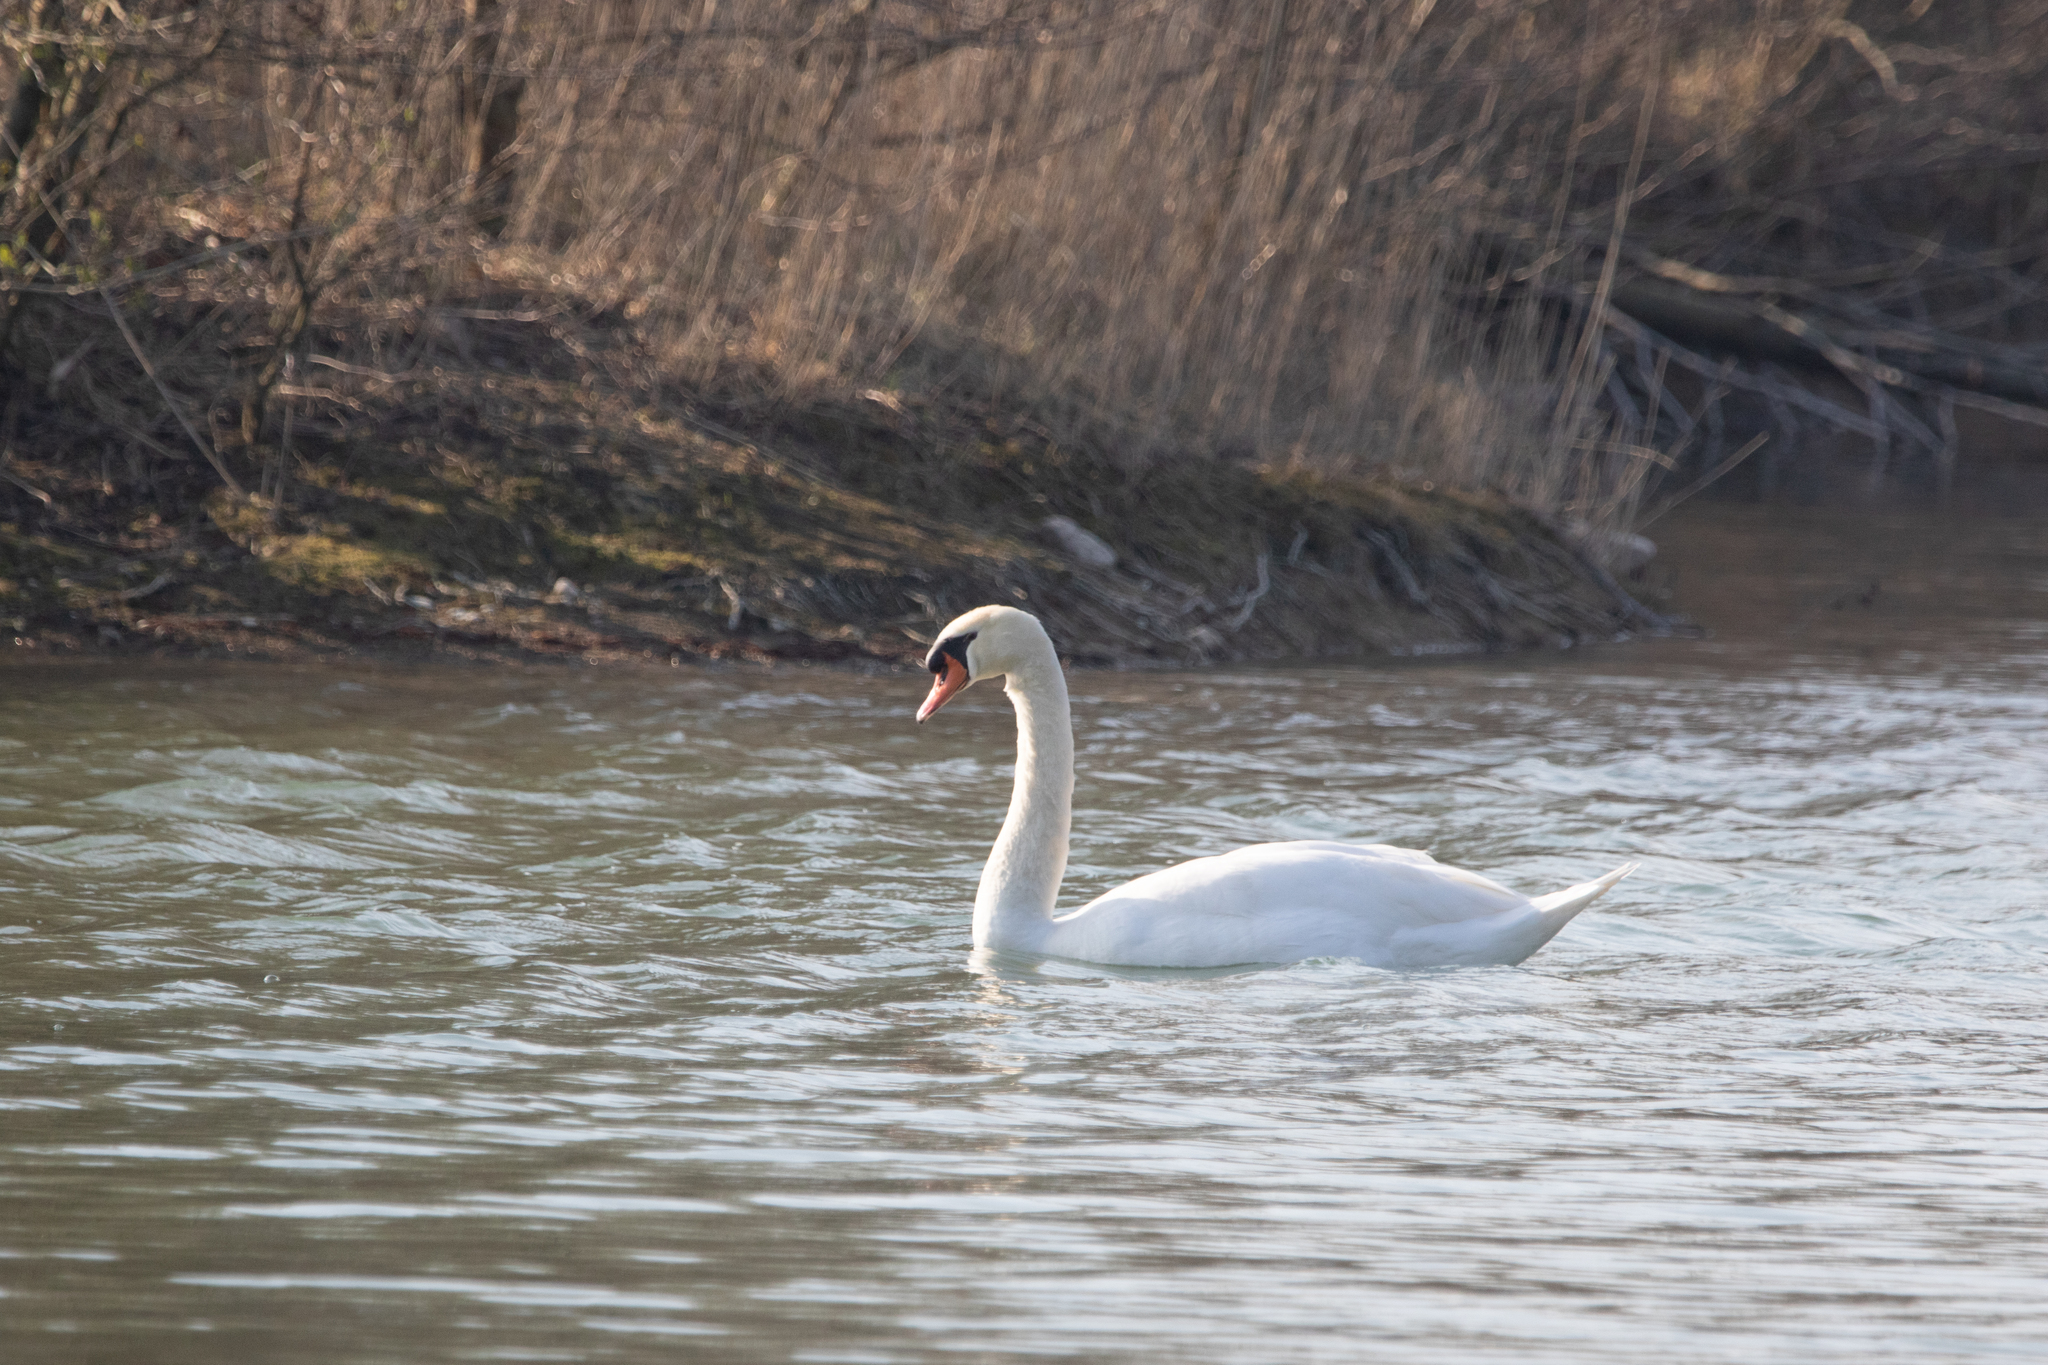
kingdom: Animalia
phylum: Chordata
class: Aves
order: Anseriformes
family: Anatidae
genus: Cygnus
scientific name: Cygnus olor
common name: Mute swan
